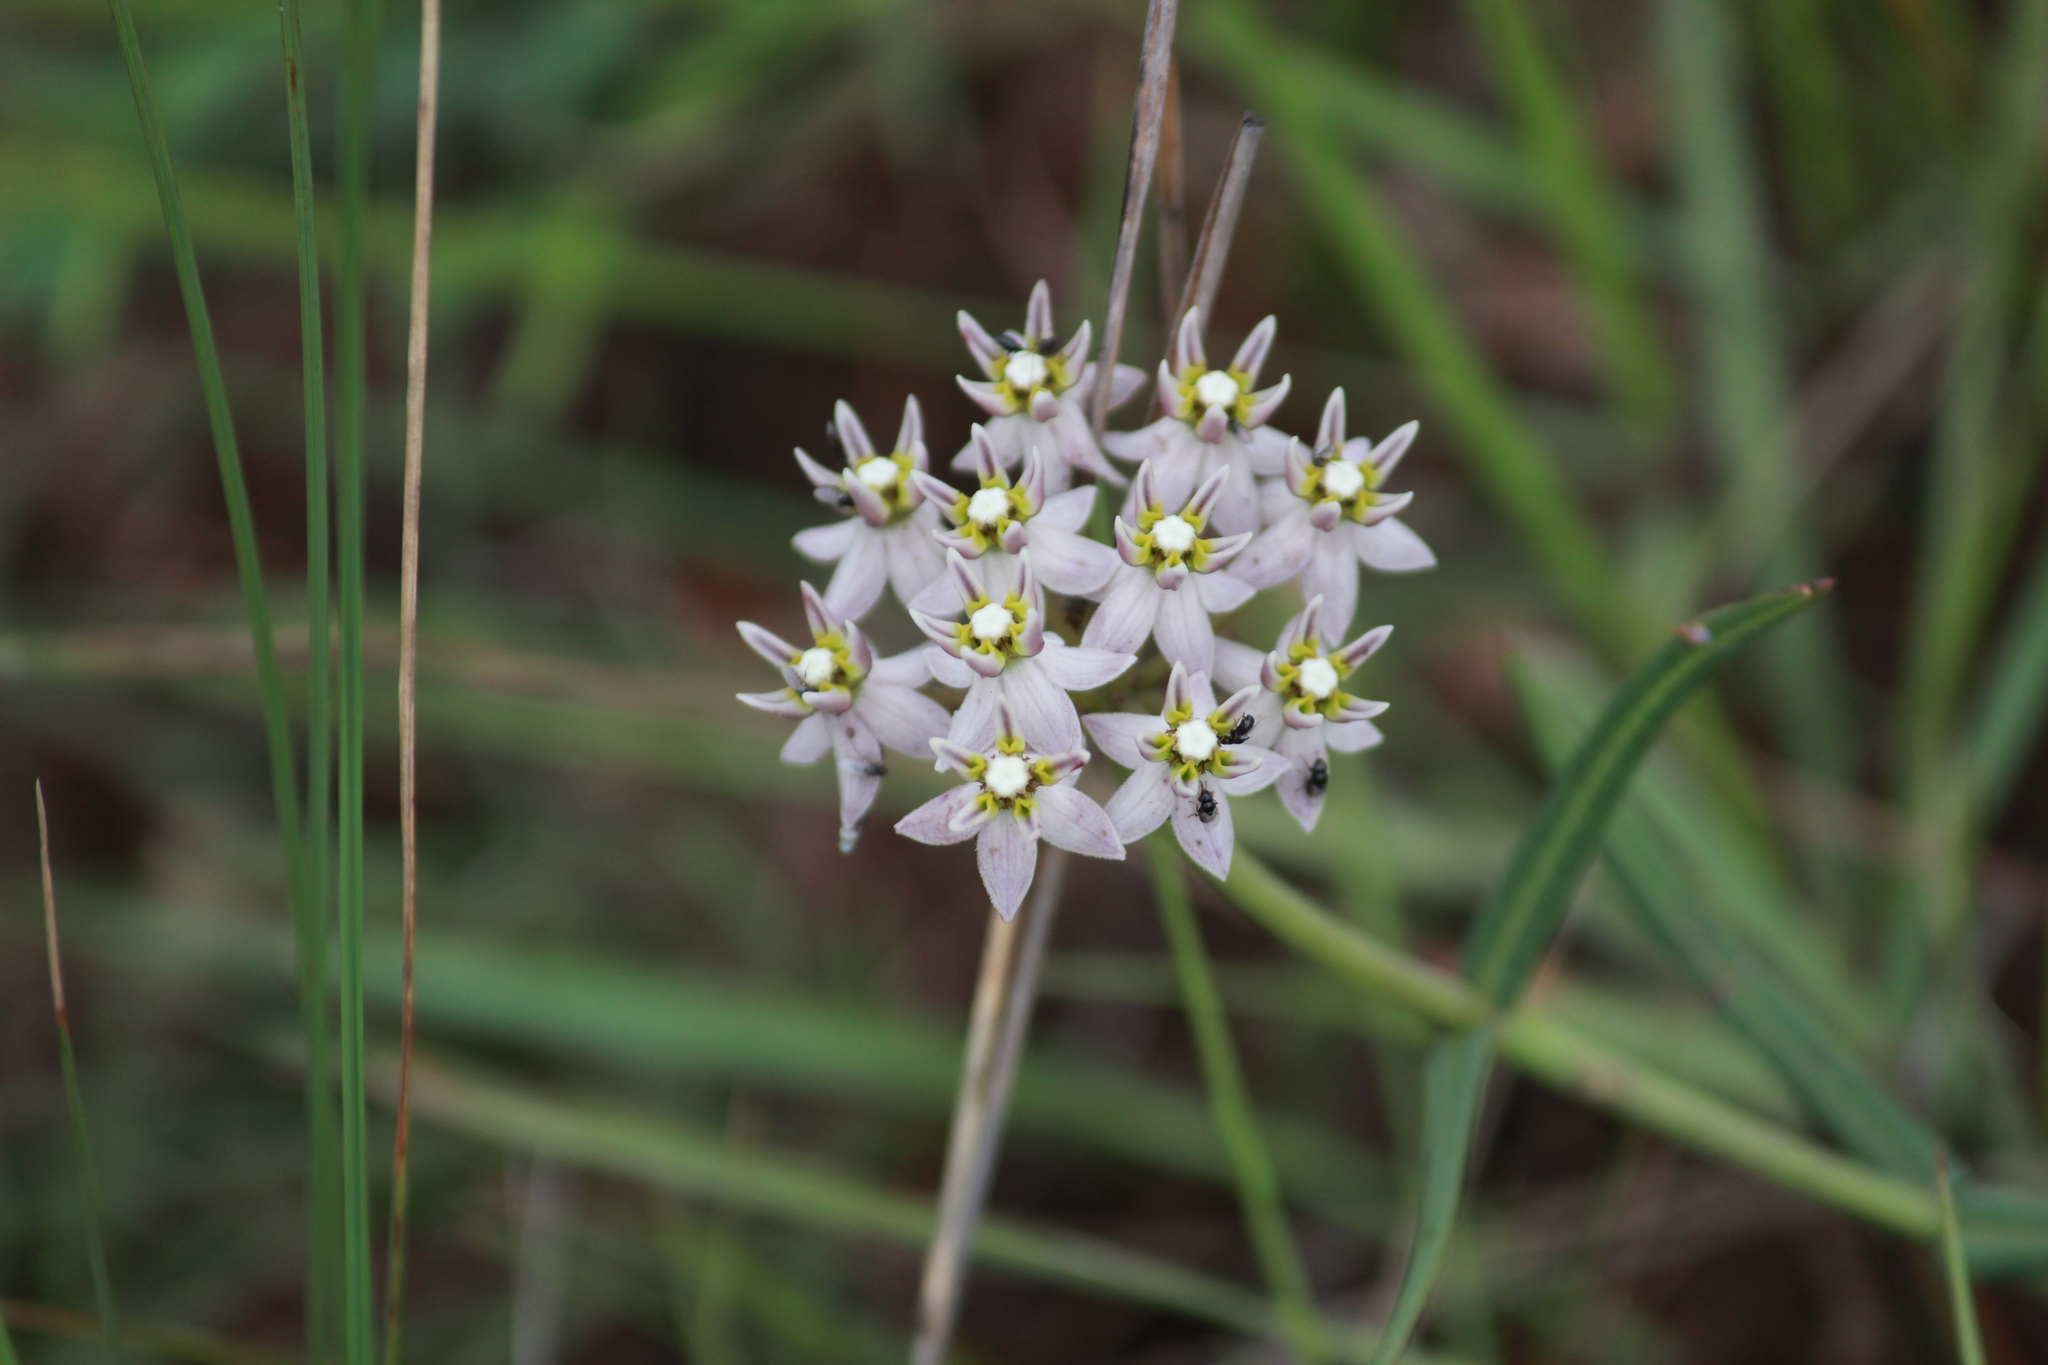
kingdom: Plantae
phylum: Tracheophyta
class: Magnoliopsida
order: Gentianales
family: Apocynaceae
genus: Asclepias
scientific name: Asclepias flexuosa
